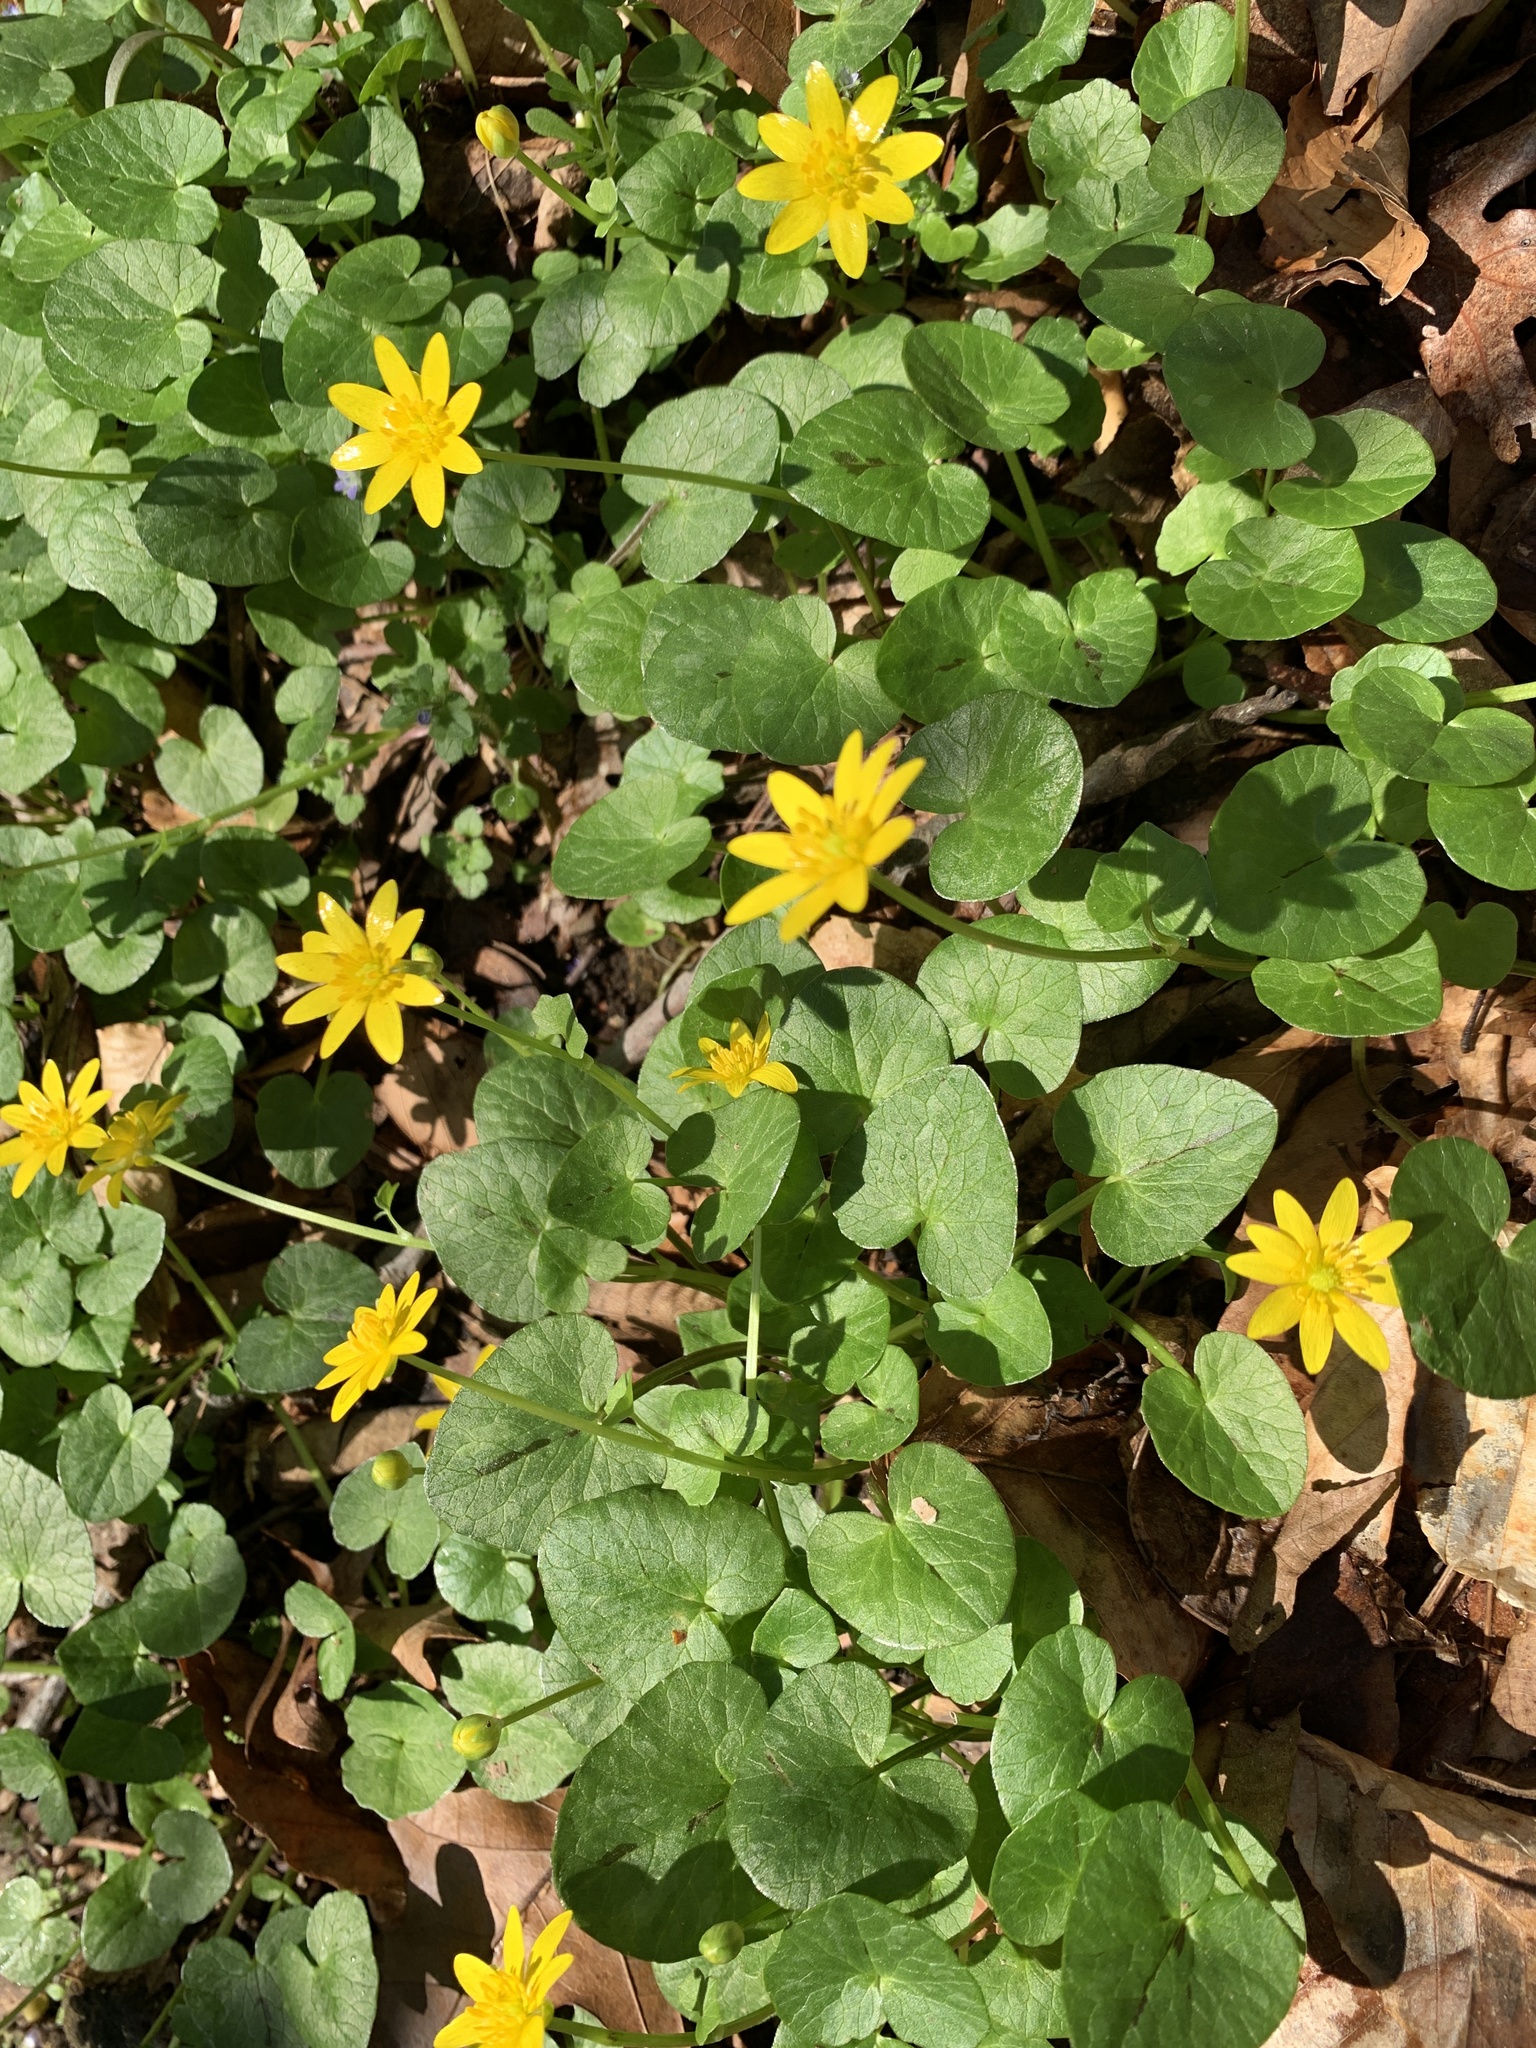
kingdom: Plantae
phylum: Tracheophyta
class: Magnoliopsida
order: Ranunculales
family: Ranunculaceae
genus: Ficaria
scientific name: Ficaria verna
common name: Lesser celandine
